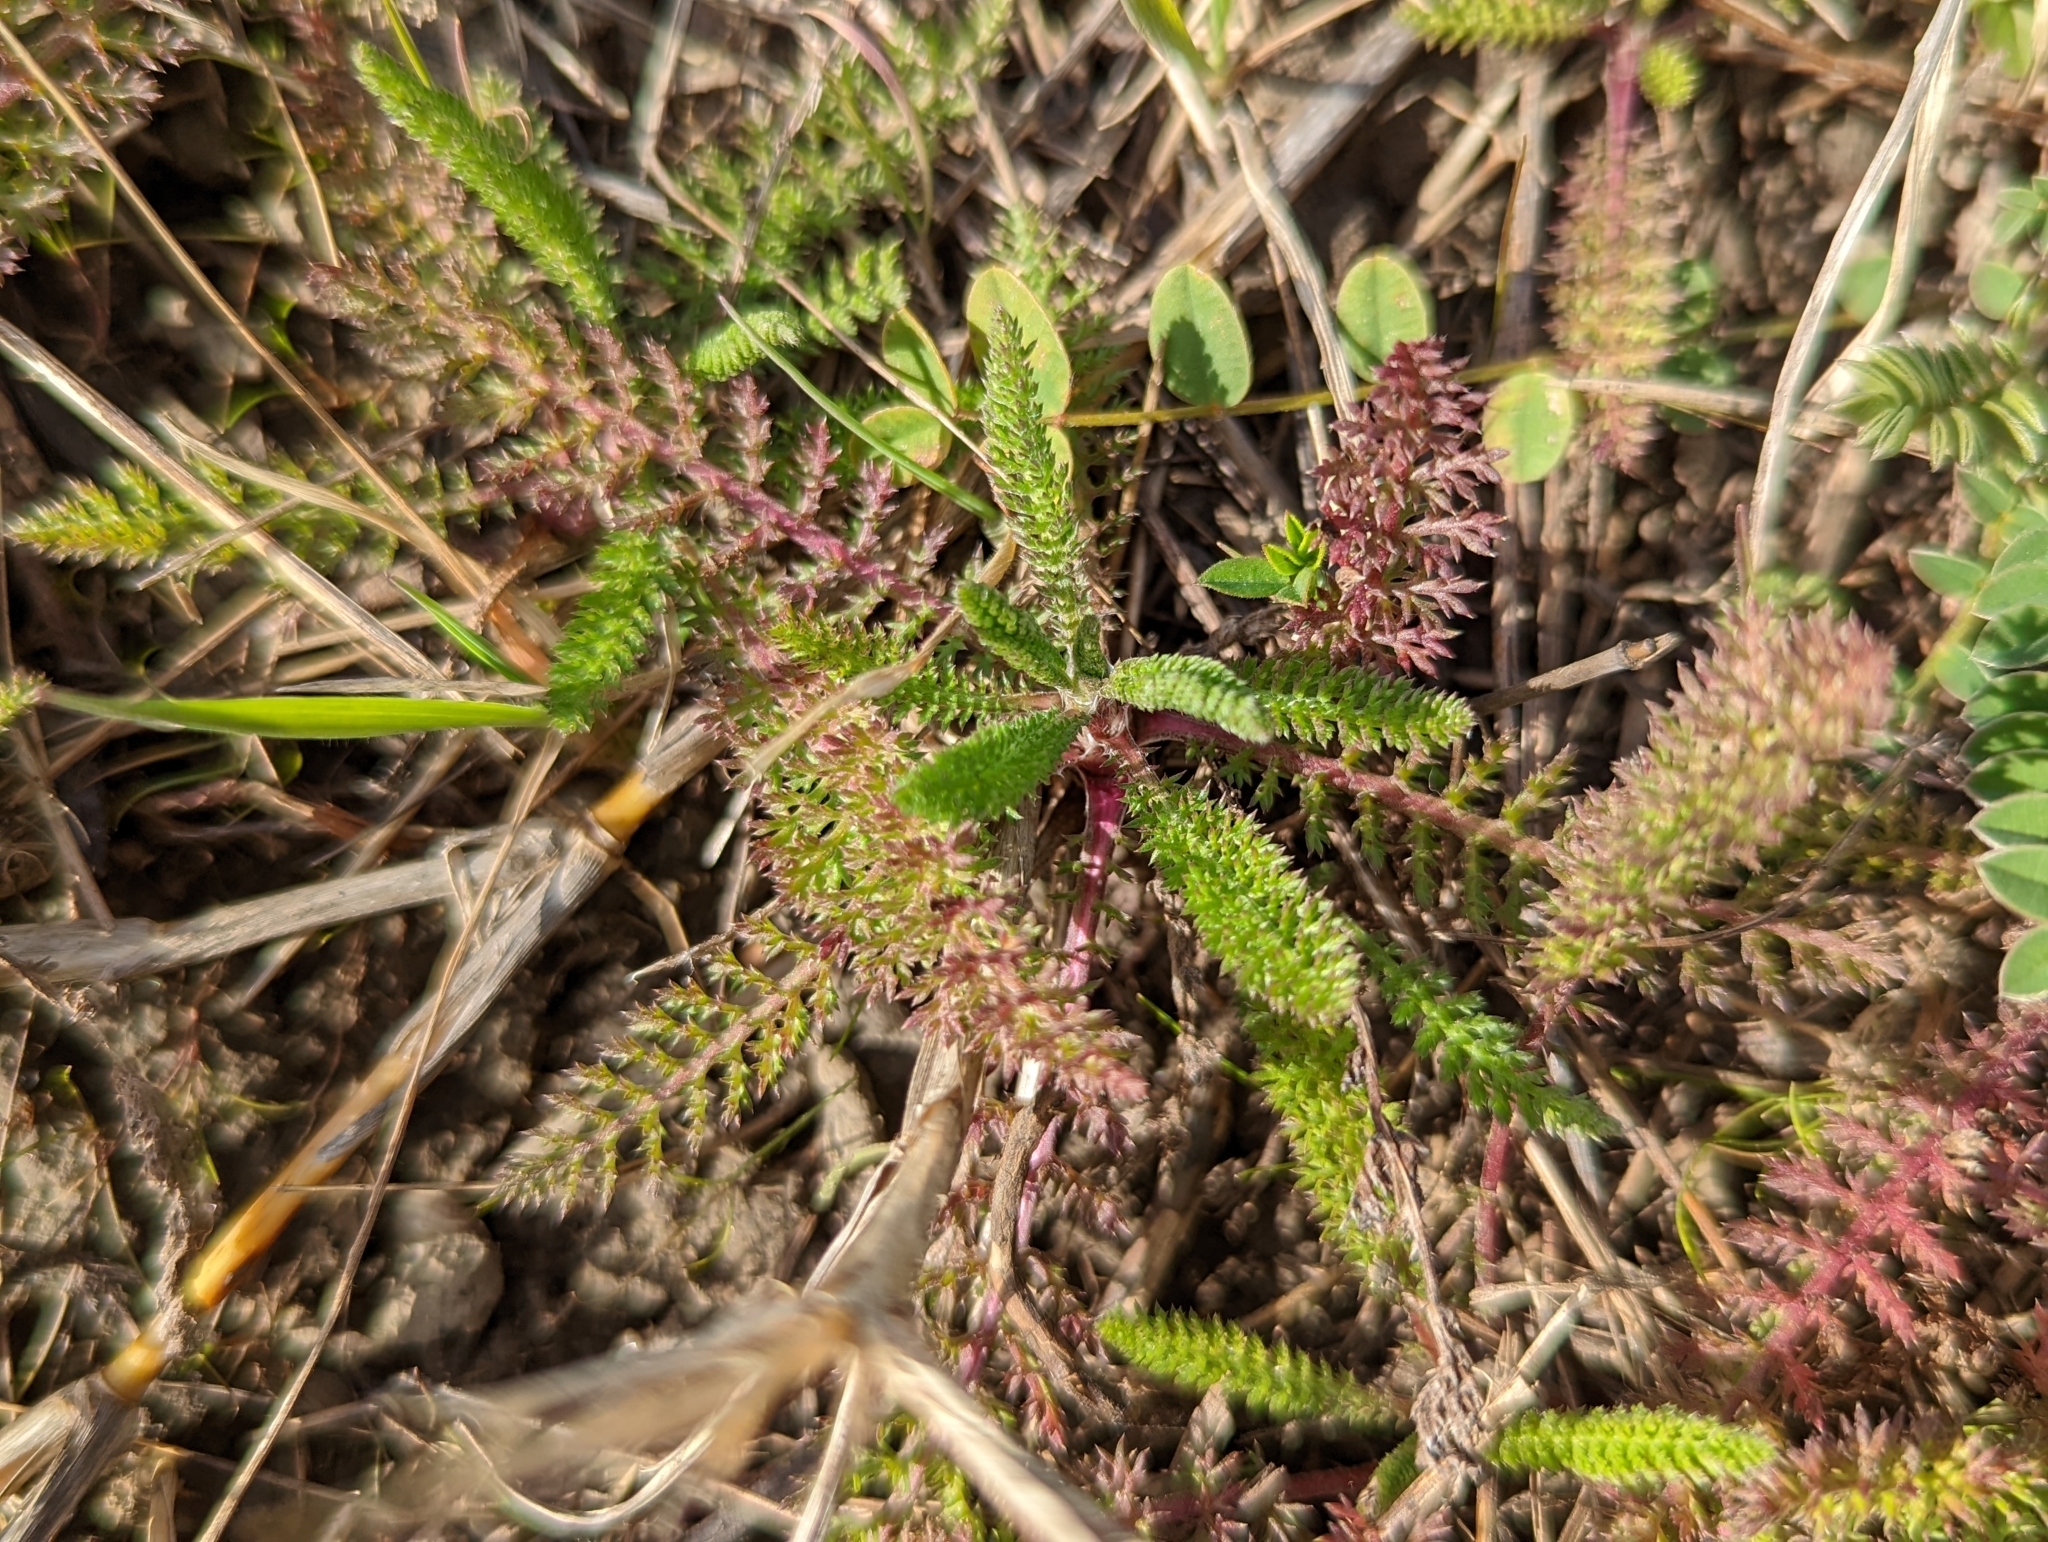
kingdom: Plantae
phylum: Tracheophyta
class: Magnoliopsida
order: Asterales
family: Asteraceae
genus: Achillea
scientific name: Achillea millefolium
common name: Yarrow
